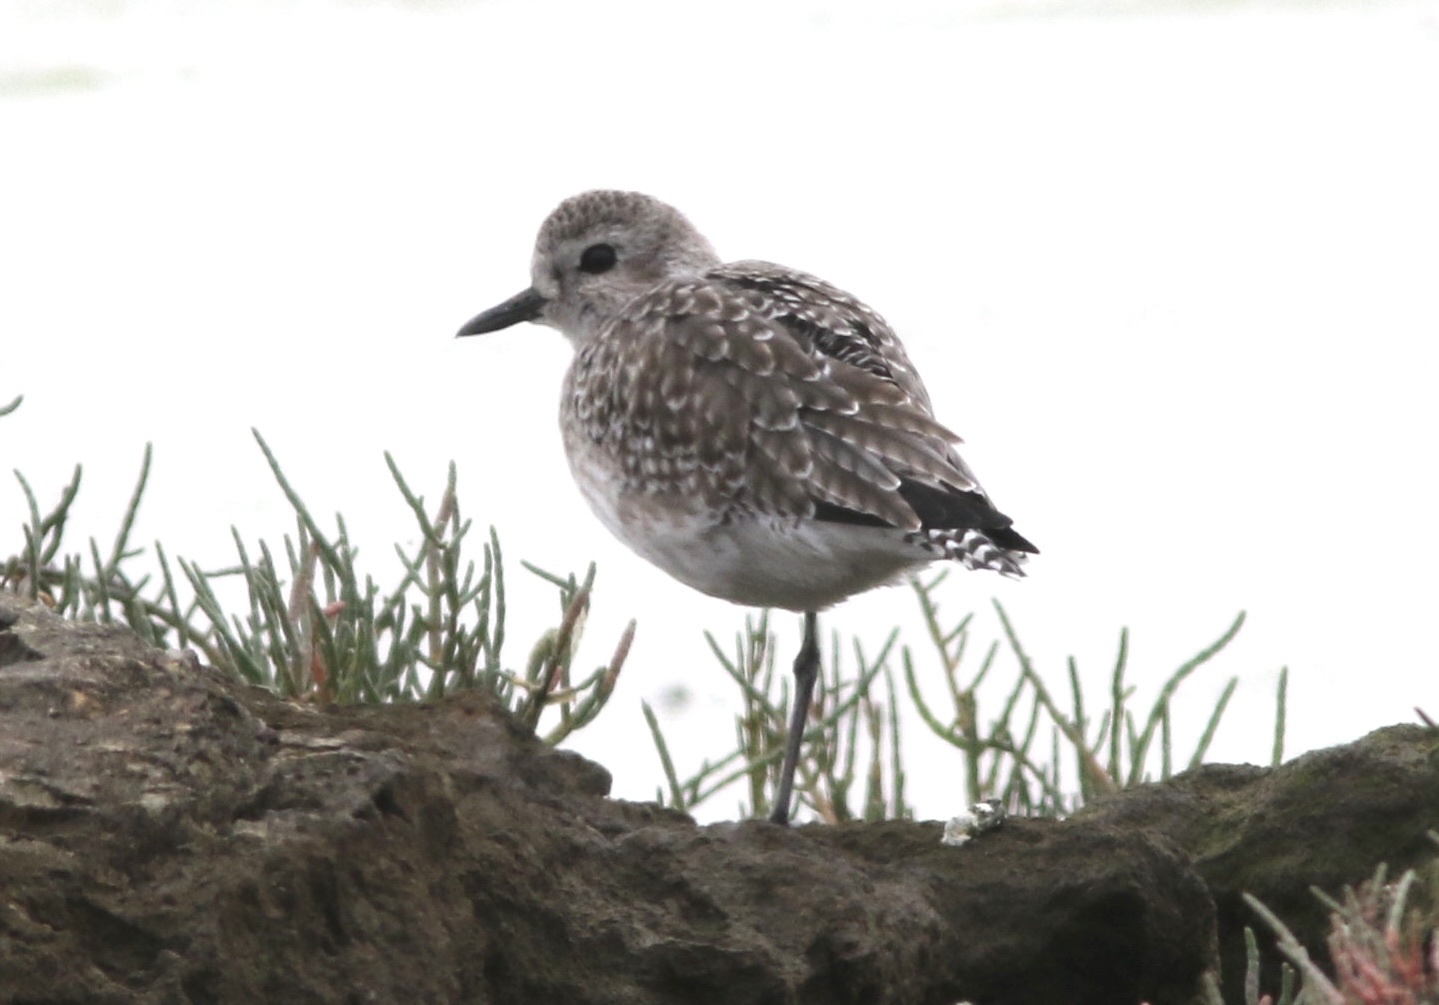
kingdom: Animalia
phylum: Chordata
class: Aves
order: Charadriiformes
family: Charadriidae
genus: Pluvialis
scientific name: Pluvialis squatarola
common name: Grey plover
